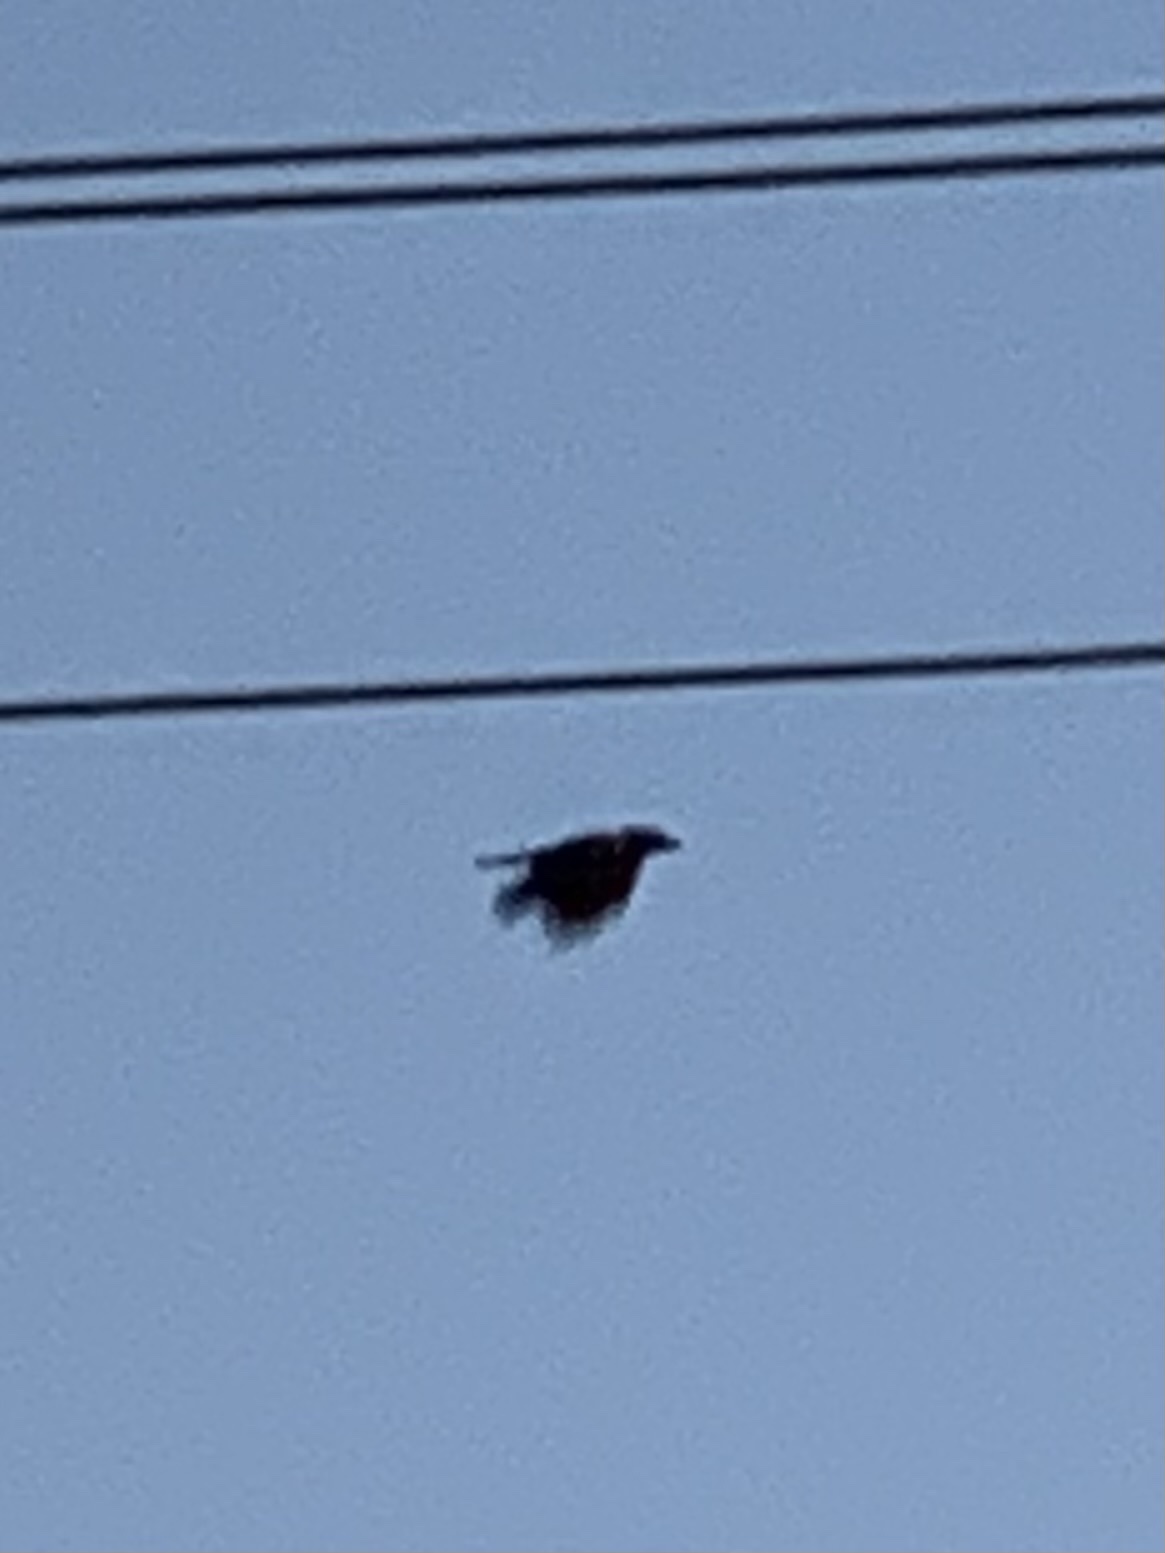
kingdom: Animalia
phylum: Chordata
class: Aves
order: Passeriformes
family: Corvidae
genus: Corvus
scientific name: Corvus brachyrhynchos
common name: American crow
